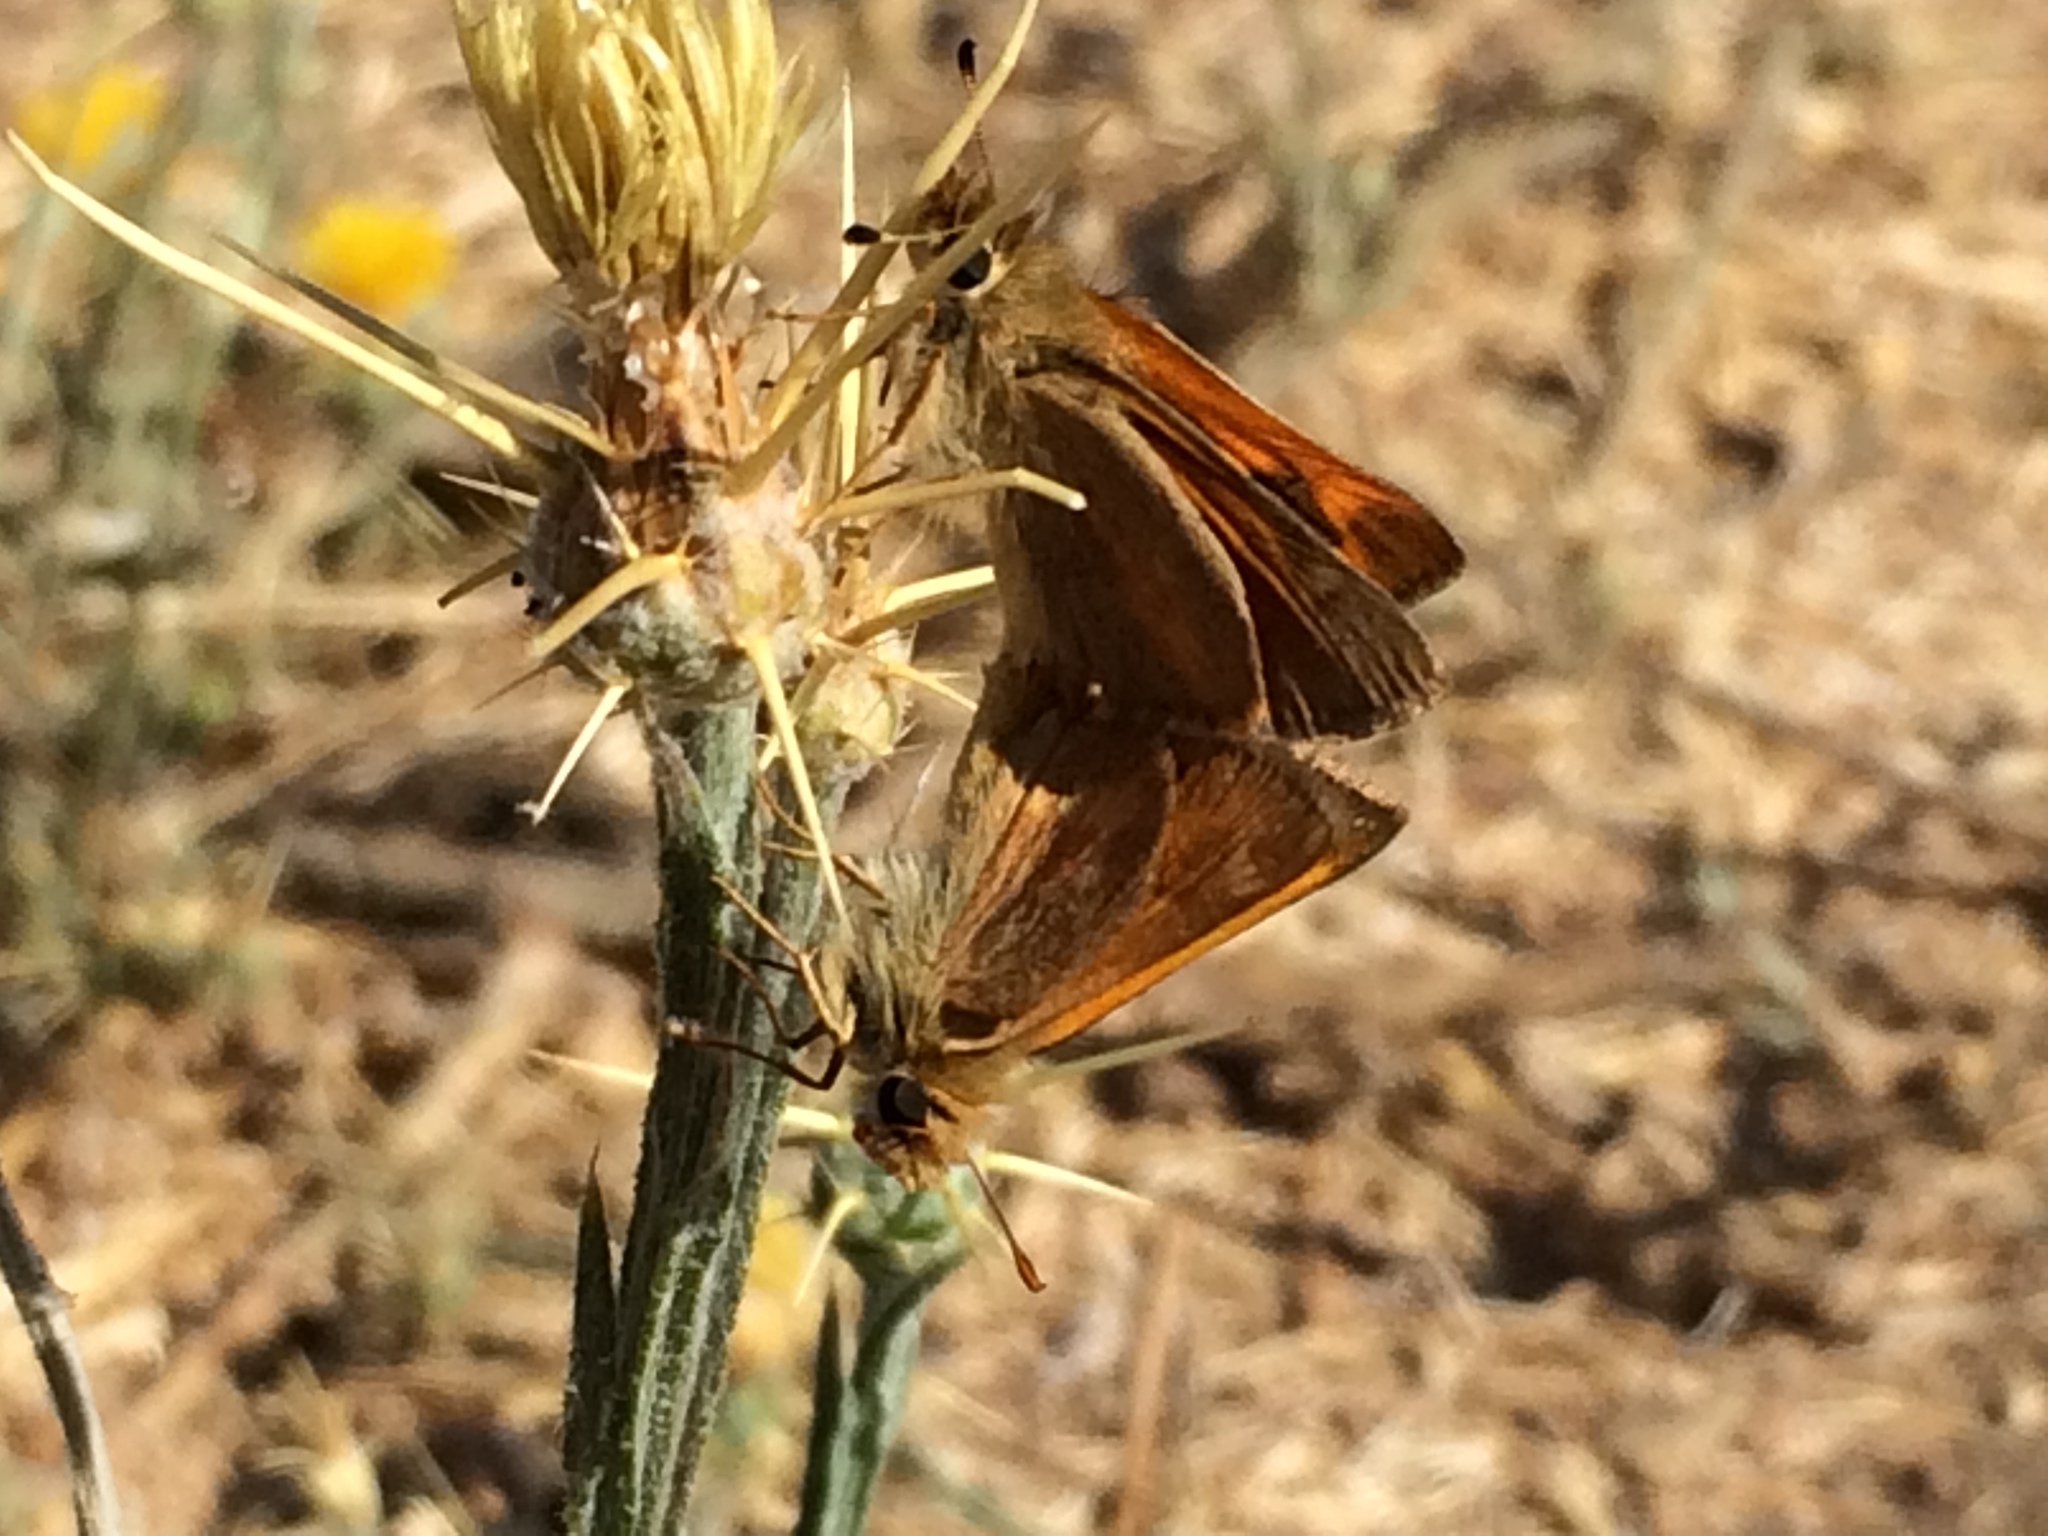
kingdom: Animalia
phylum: Arthropoda
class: Insecta
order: Lepidoptera
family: Hesperiidae
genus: Ochlodes
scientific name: Ochlodes sylvanoides
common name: Woodland skipper
